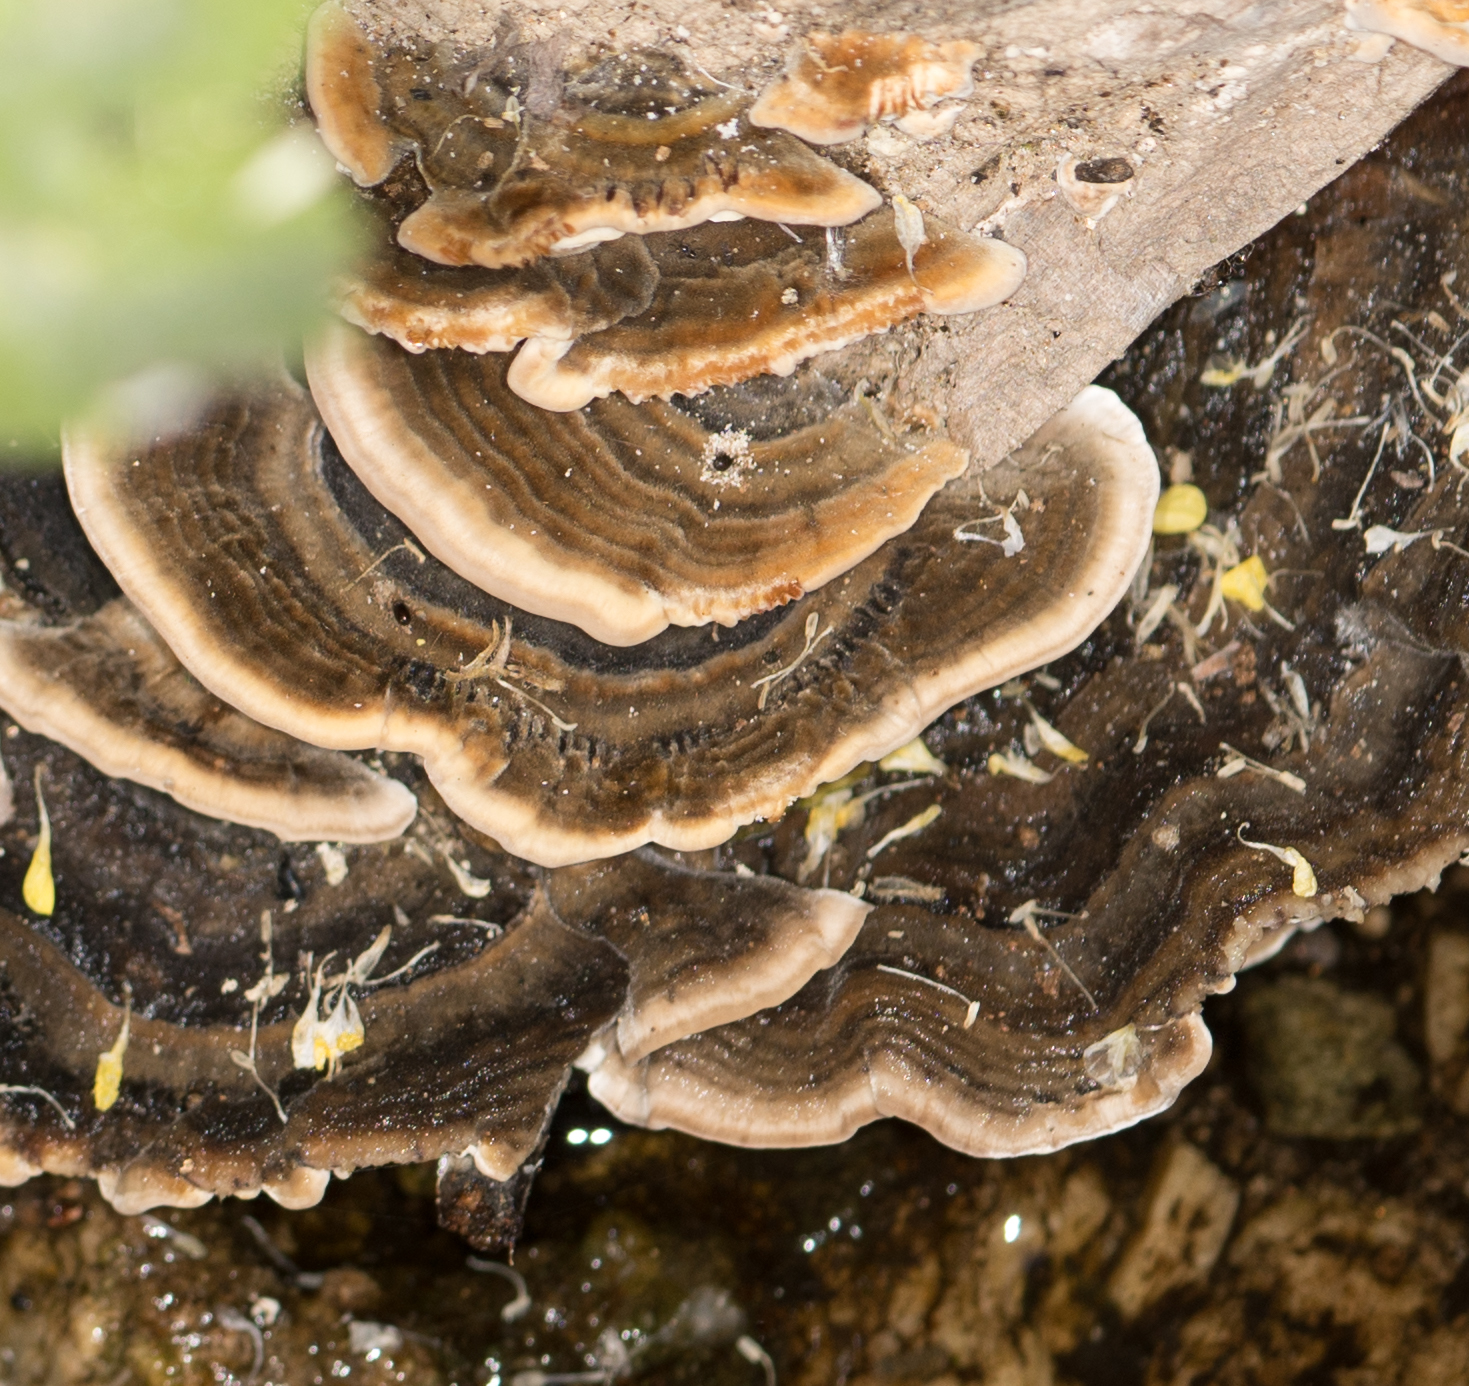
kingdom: Fungi
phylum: Basidiomycota
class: Agaricomycetes
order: Polyporales
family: Polyporaceae
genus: Trametes
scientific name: Trametes versicolor
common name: Turkeytail
